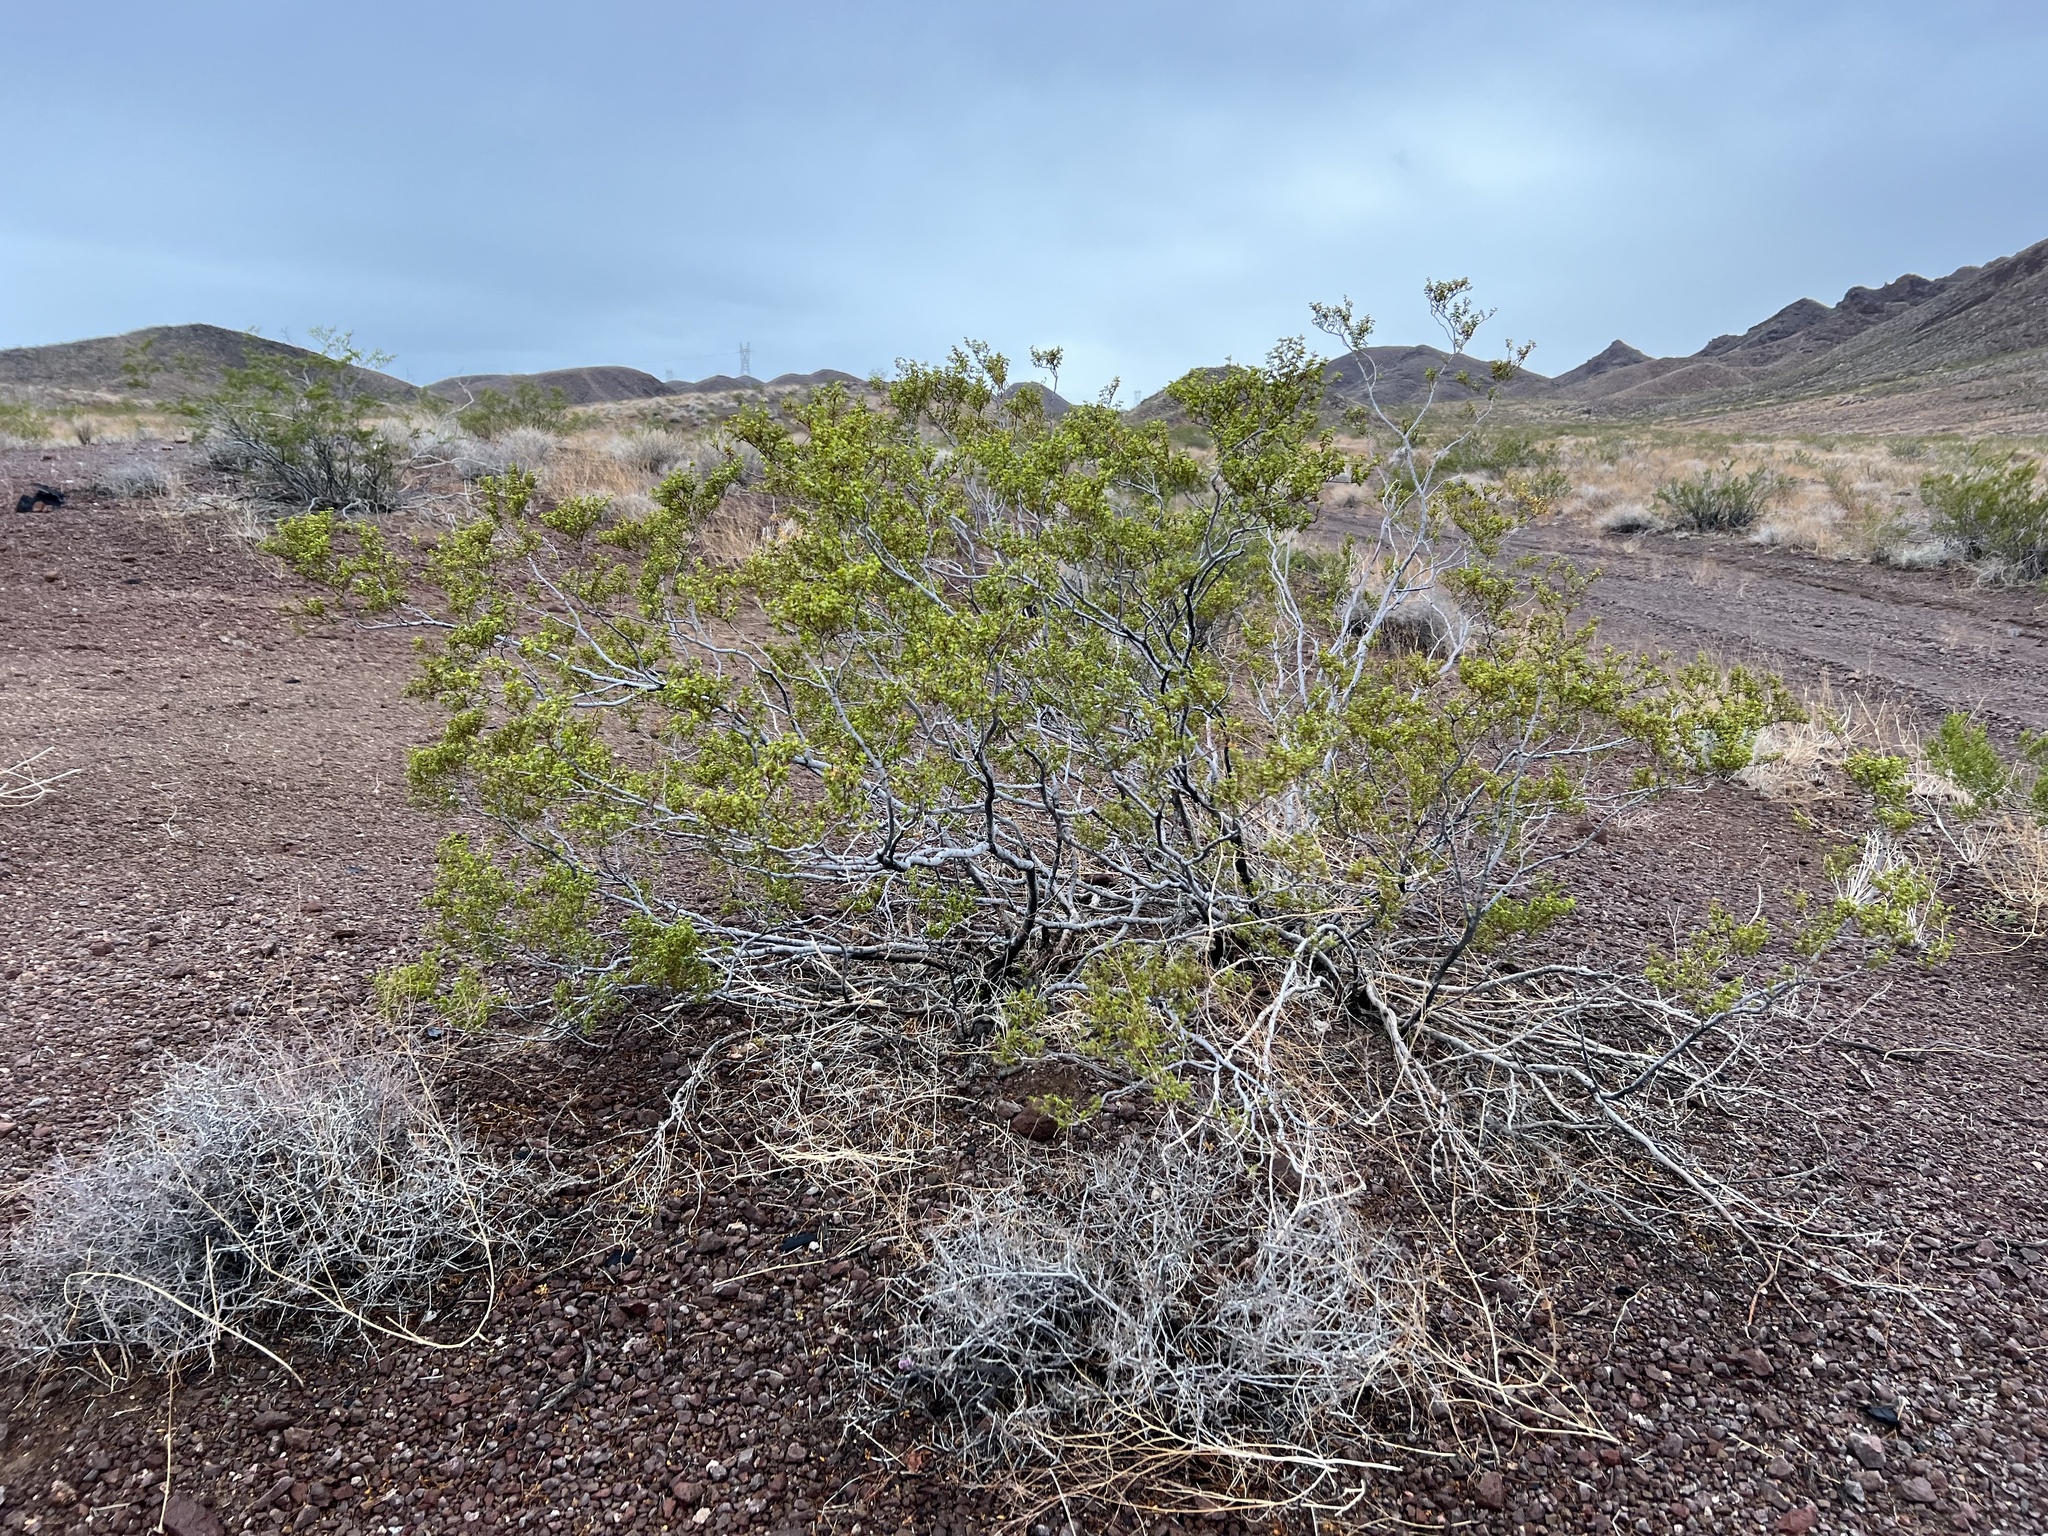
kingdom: Plantae
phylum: Tracheophyta
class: Magnoliopsida
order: Zygophyllales
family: Zygophyllaceae
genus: Larrea
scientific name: Larrea tridentata
